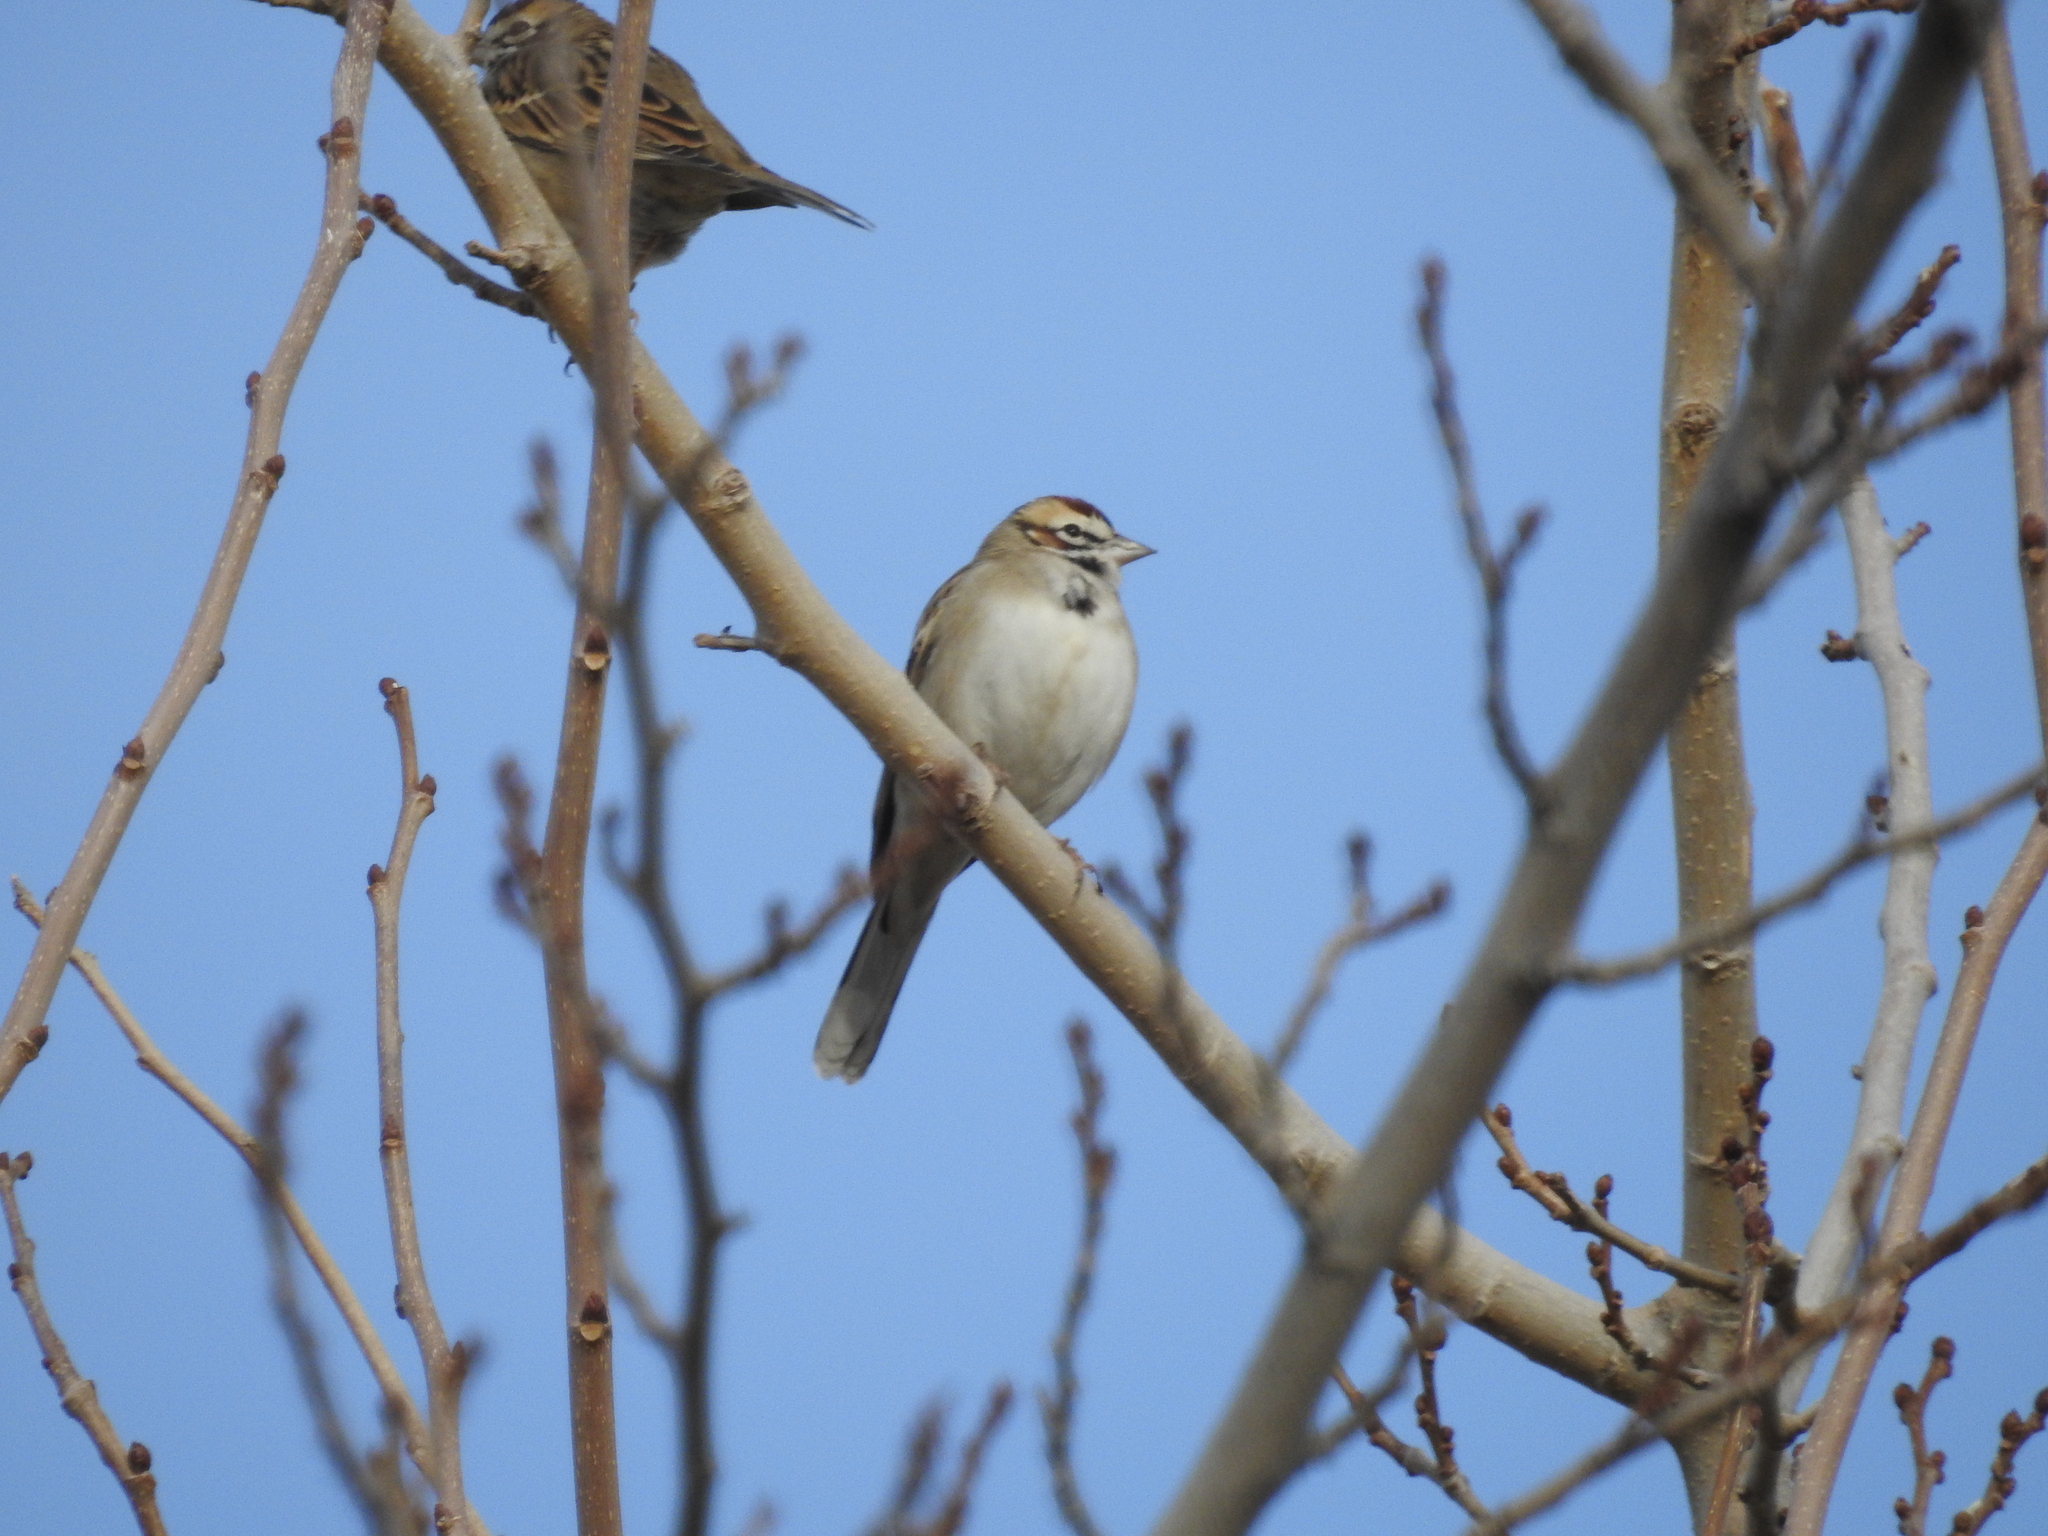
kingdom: Animalia
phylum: Chordata
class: Aves
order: Passeriformes
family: Passerellidae
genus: Chondestes
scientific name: Chondestes grammacus
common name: Lark sparrow
